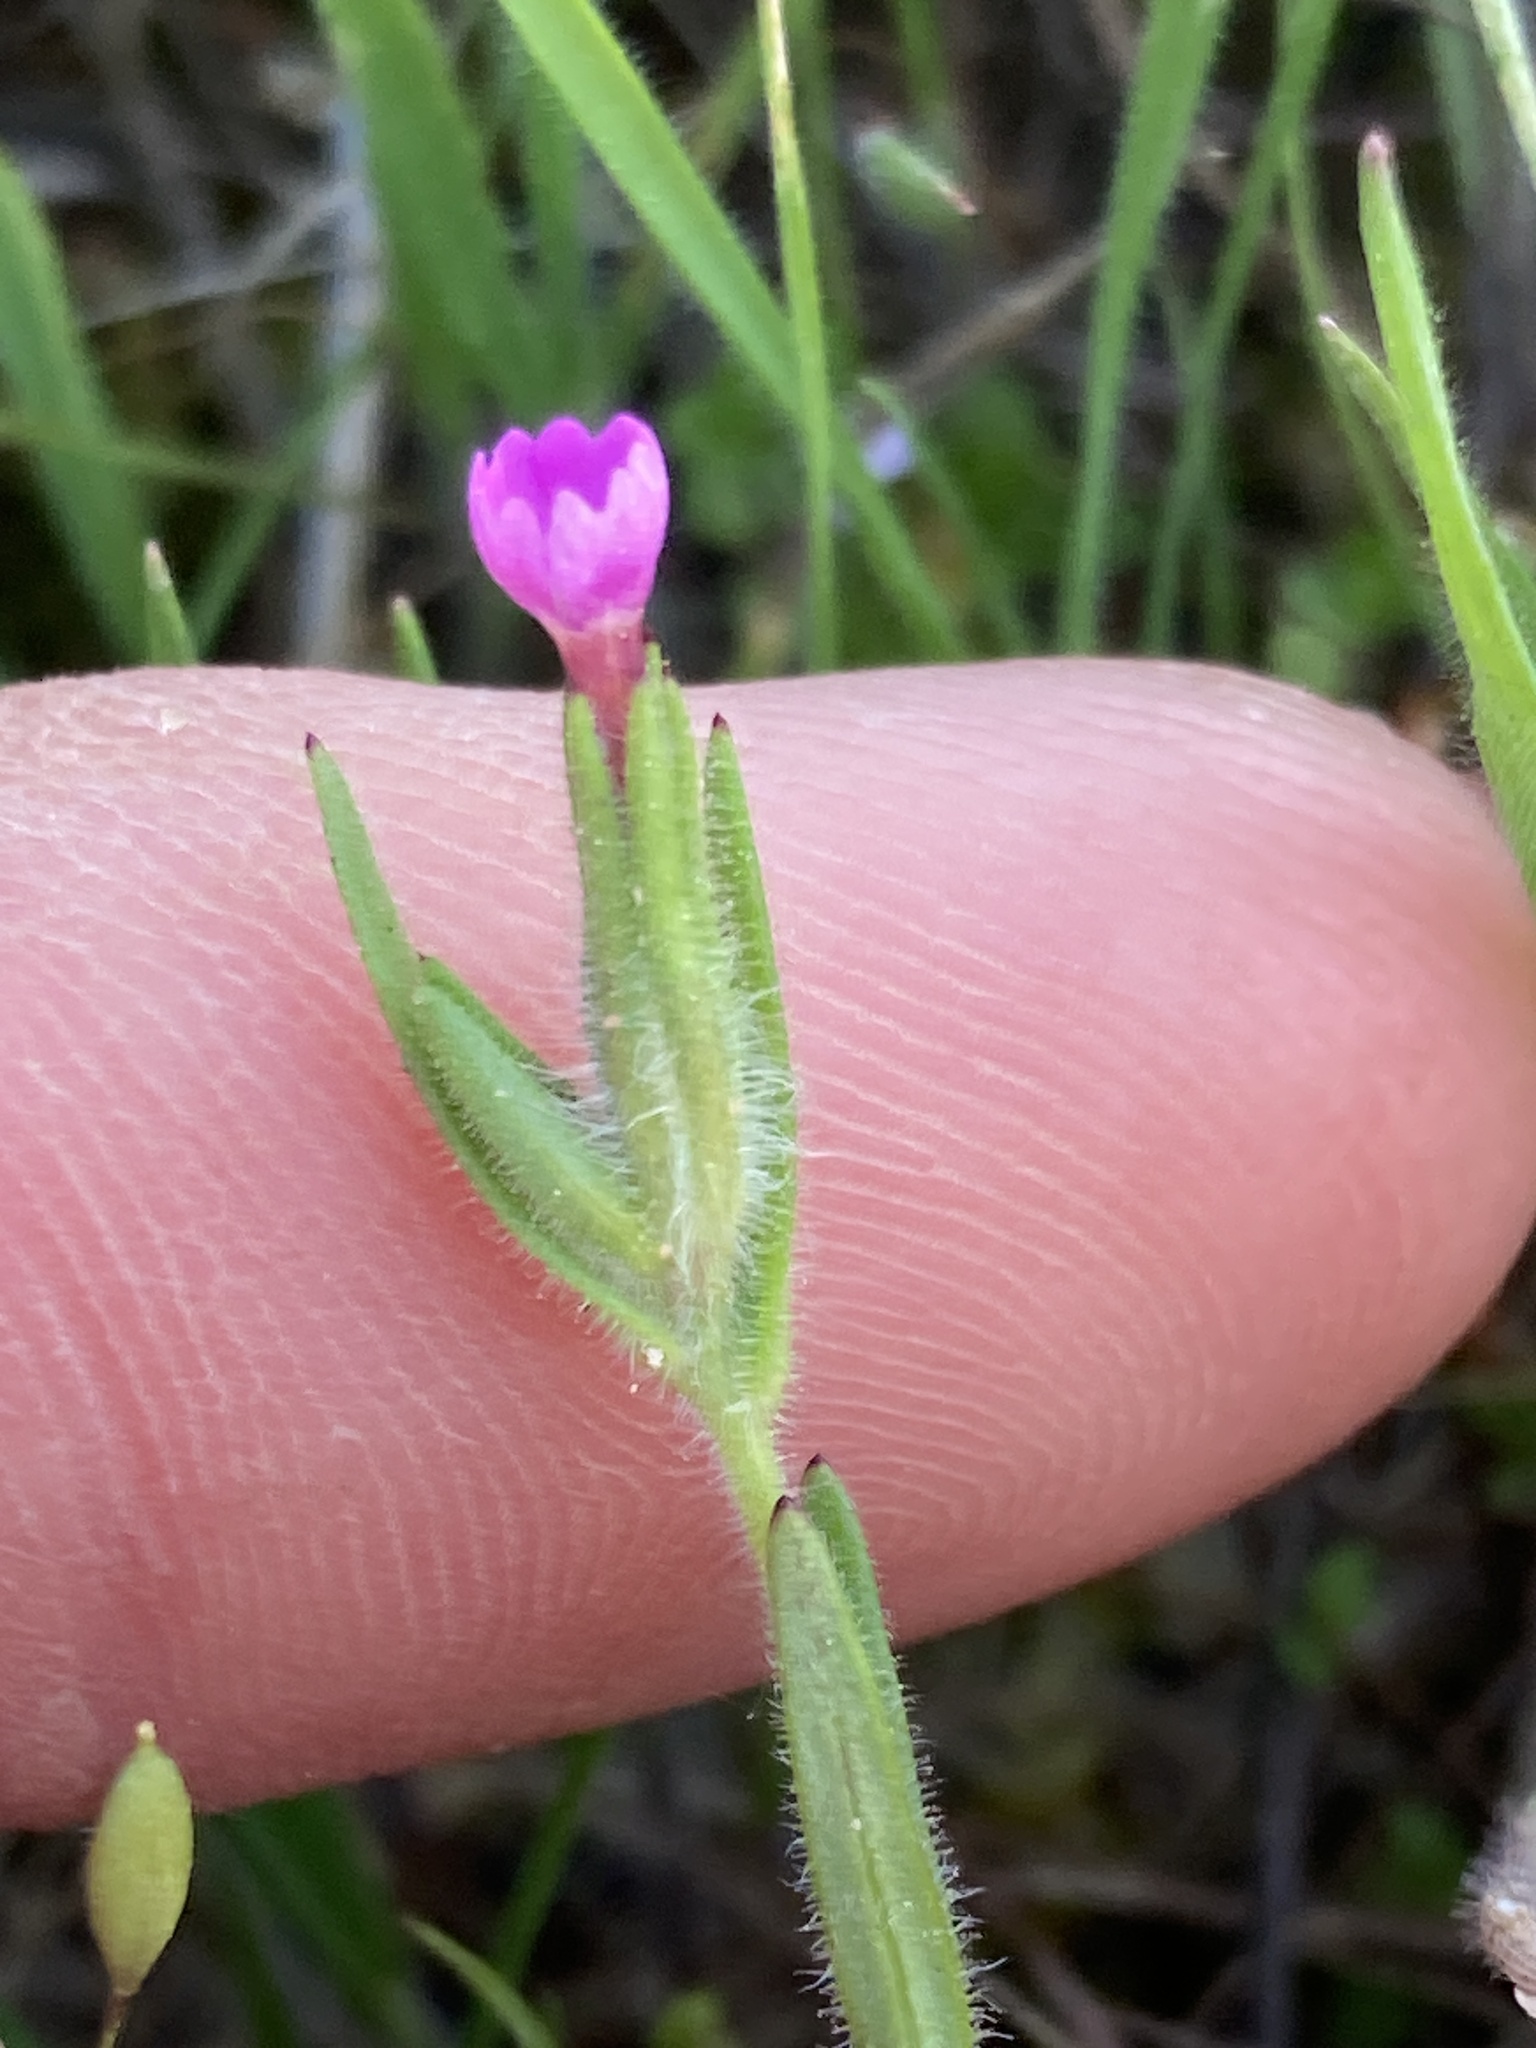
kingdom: Plantae
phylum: Tracheophyta
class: Magnoliopsida
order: Ericales
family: Polemoniaceae
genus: Phlox
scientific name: Phlox gracilis
